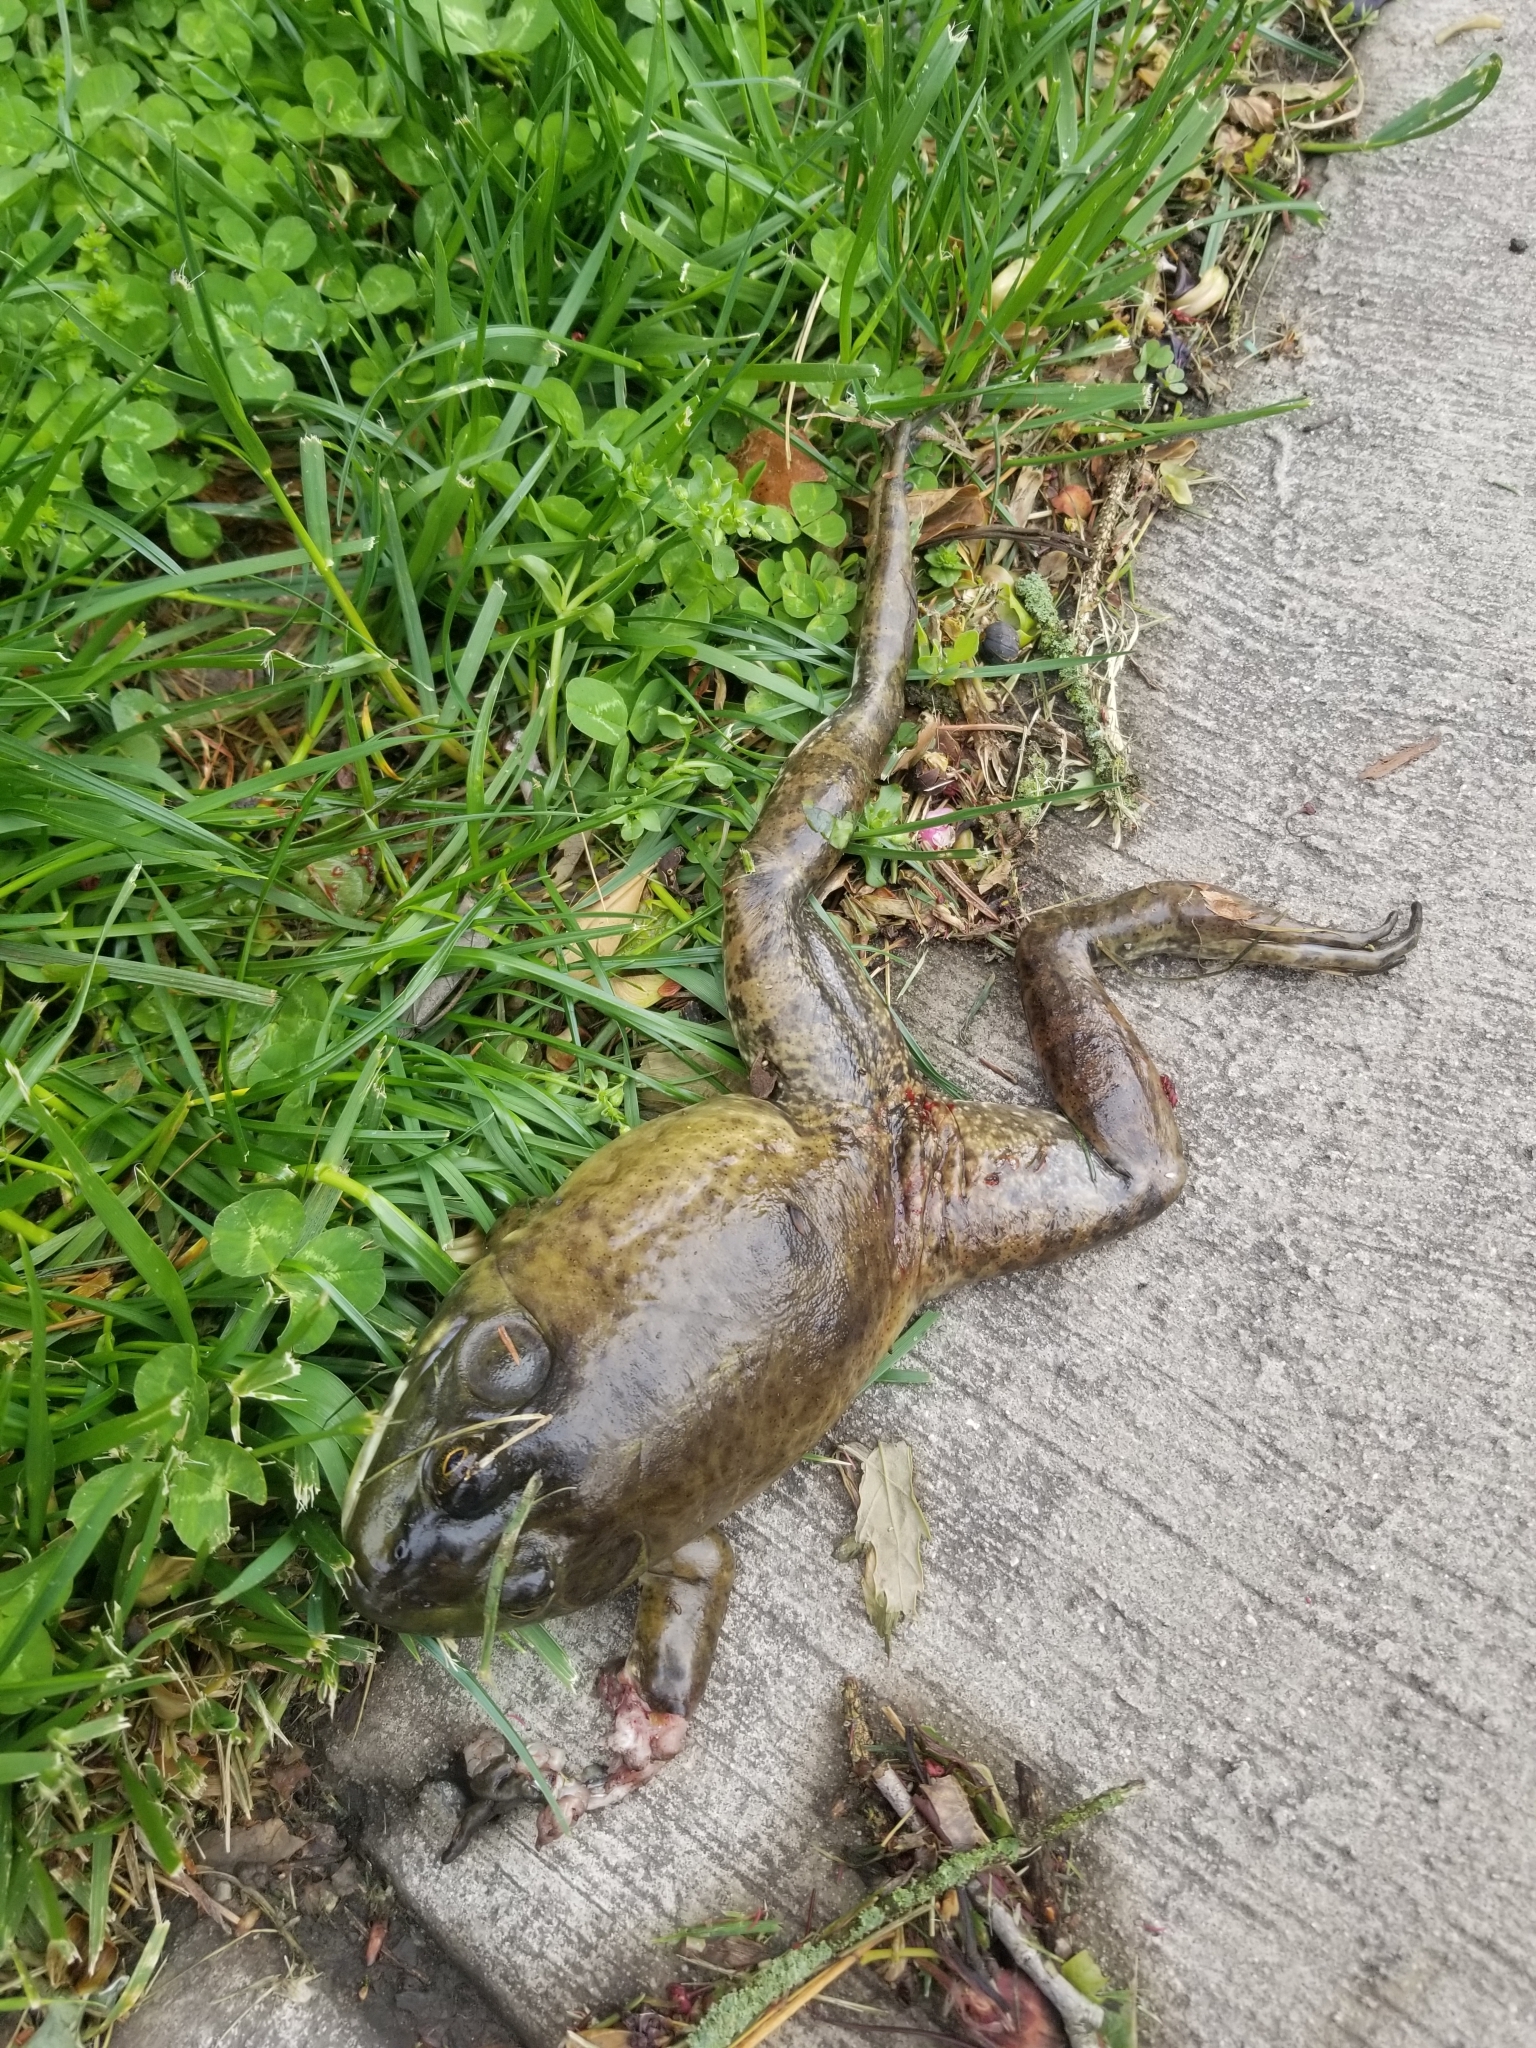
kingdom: Animalia
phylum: Chordata
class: Amphibia
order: Anura
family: Ranidae
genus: Lithobates
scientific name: Lithobates catesbeianus
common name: American bullfrog
